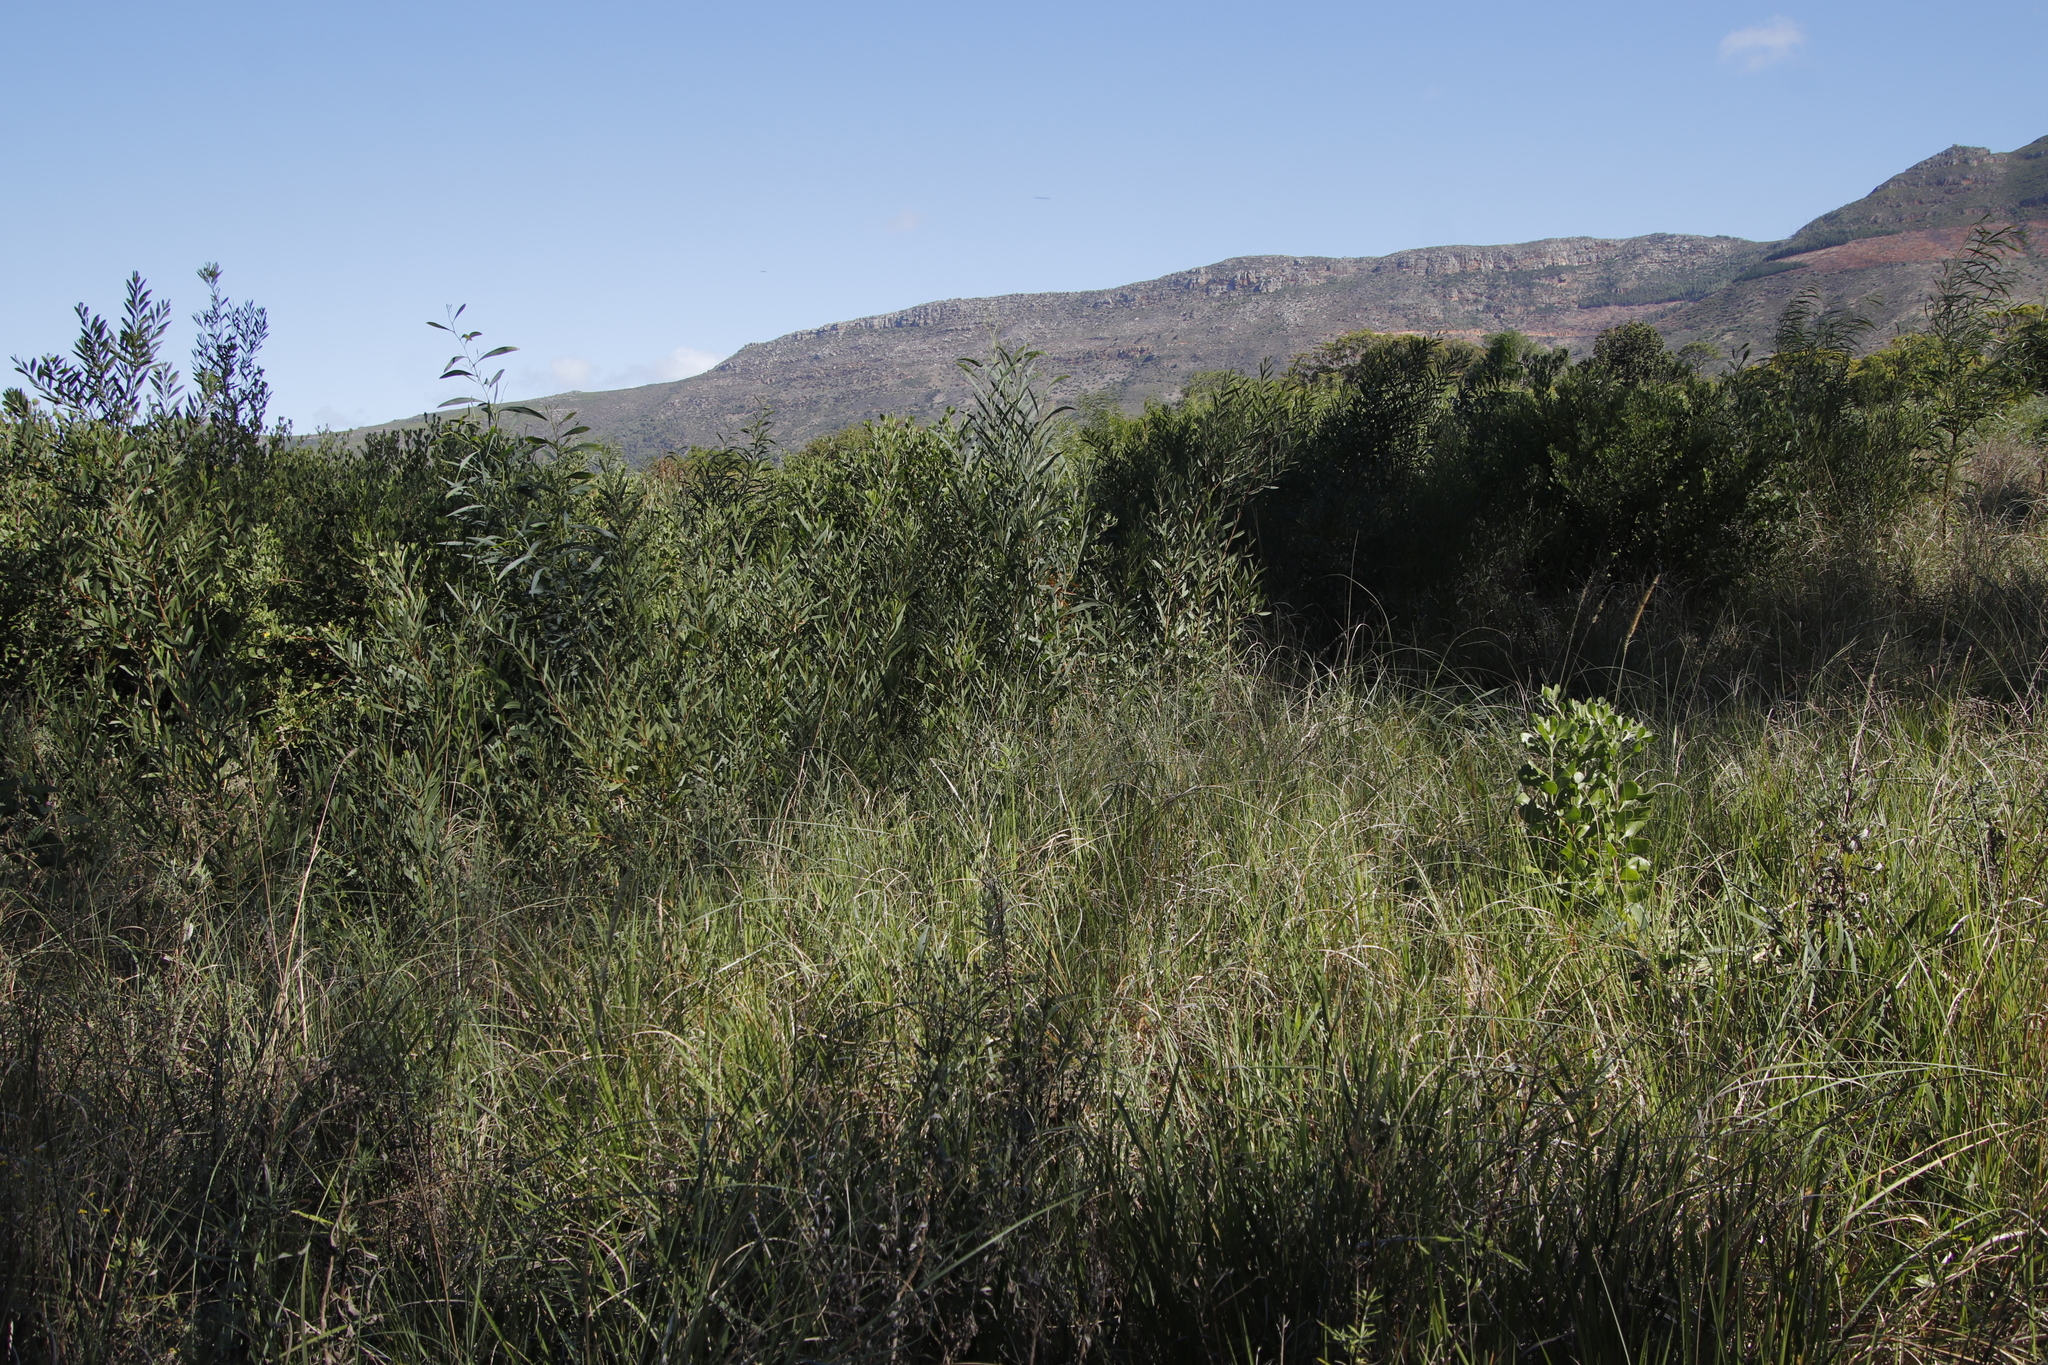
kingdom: Plantae
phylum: Tracheophyta
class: Magnoliopsida
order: Fabales
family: Fabaceae
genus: Acacia
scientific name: Acacia saligna
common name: Orange wattle
